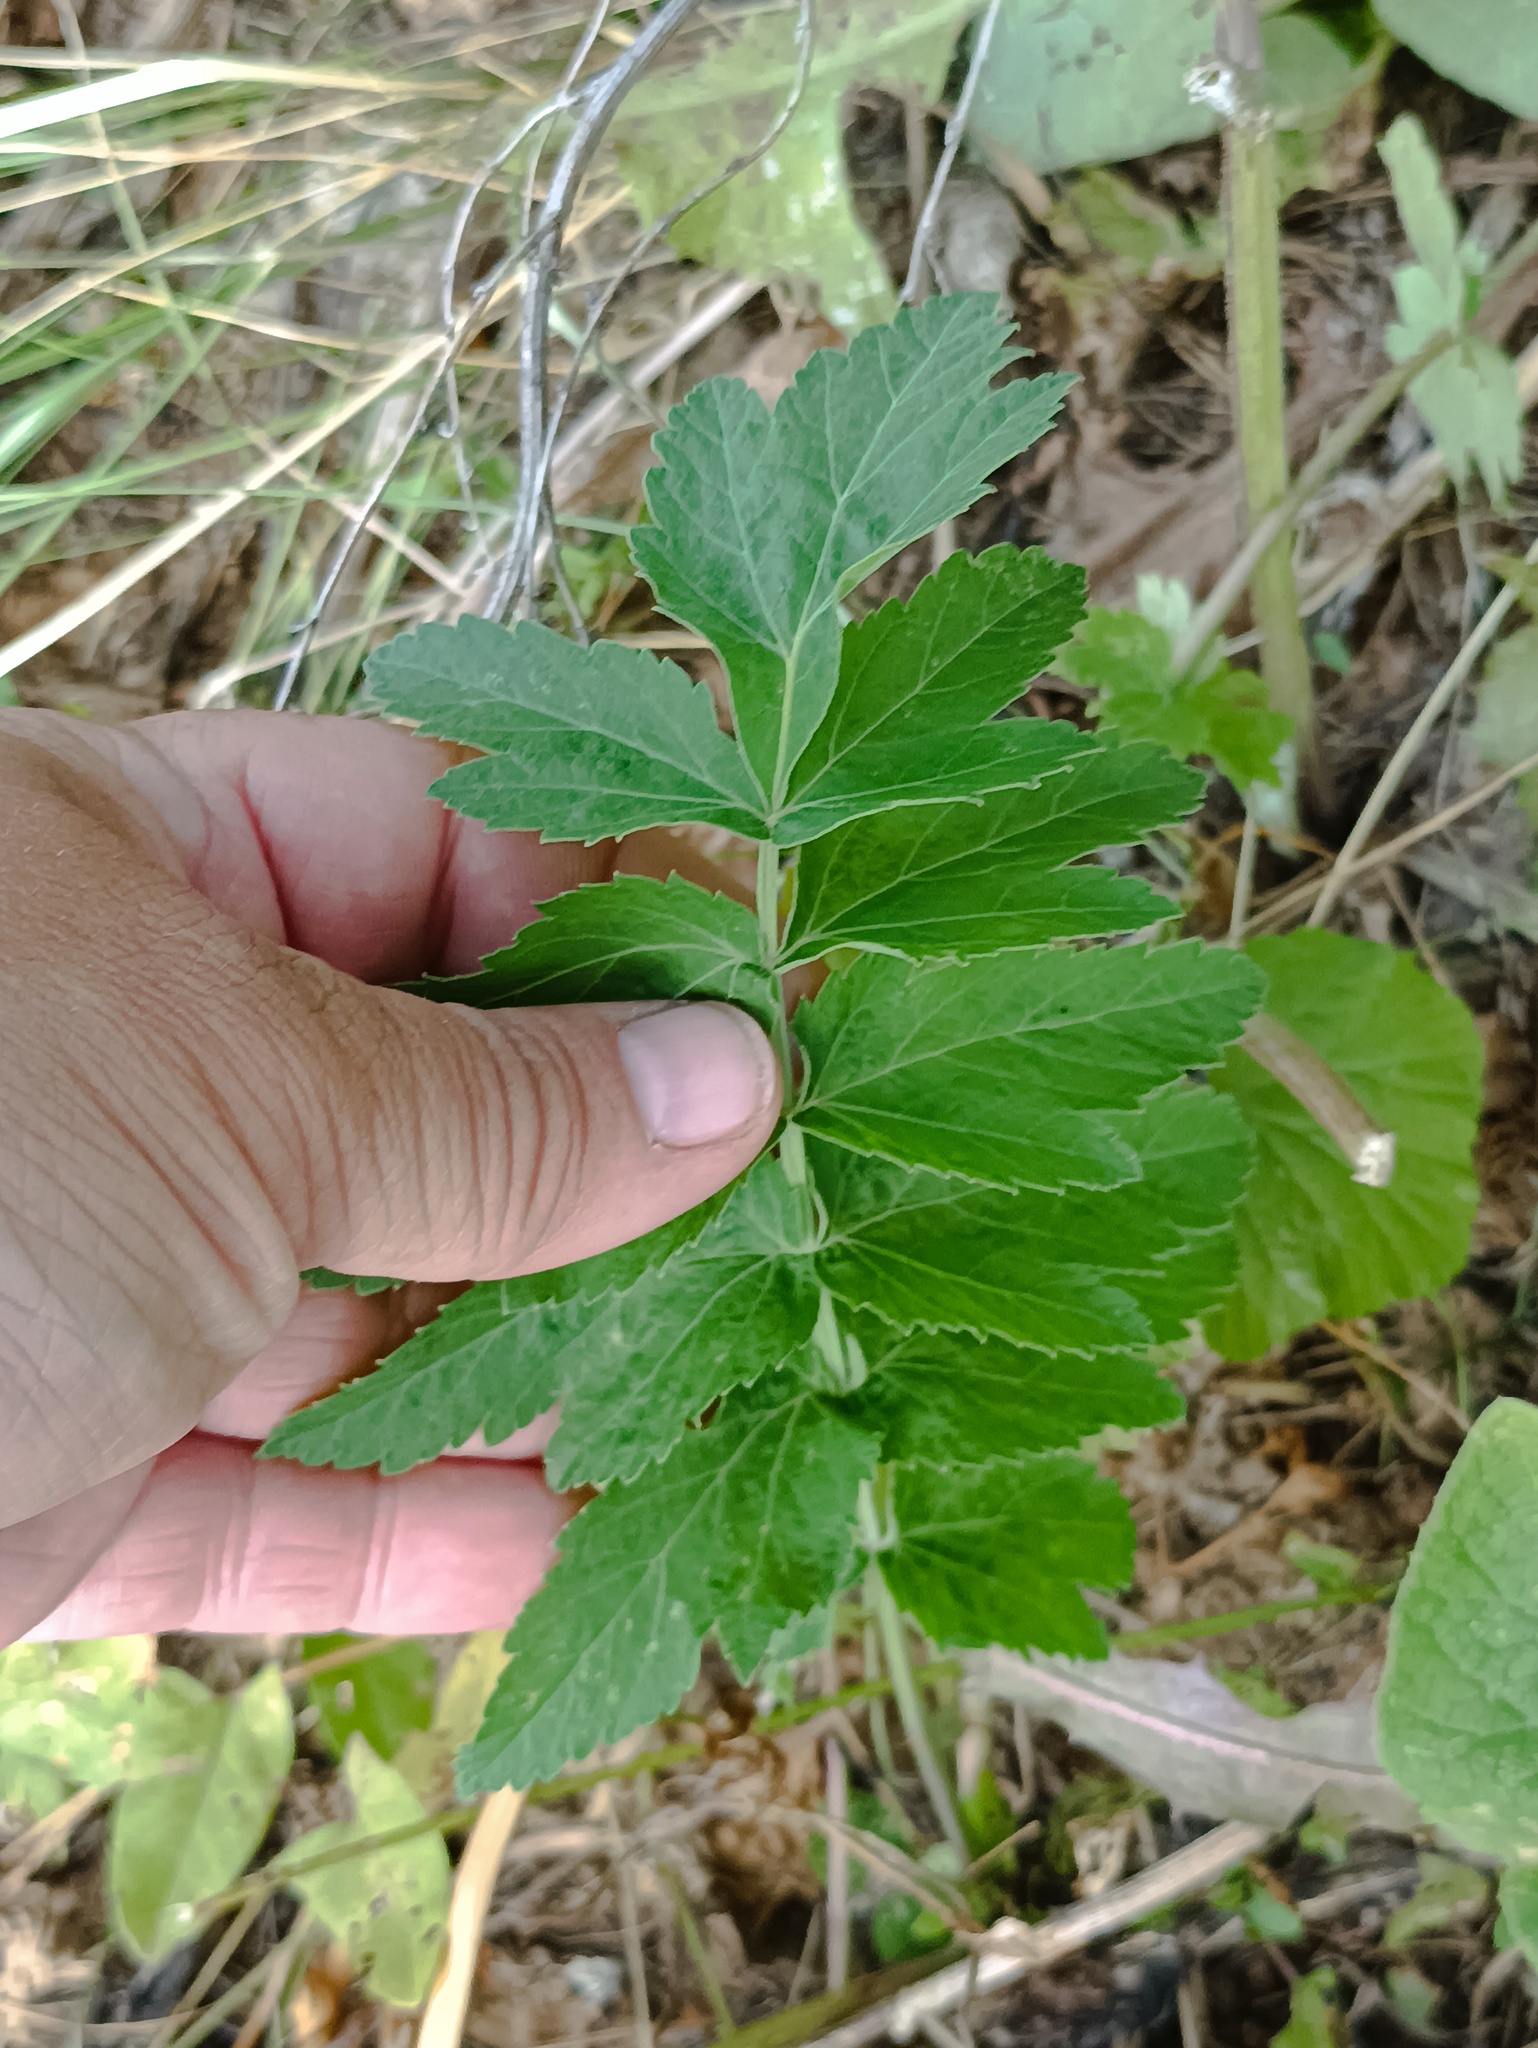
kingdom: Plantae
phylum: Tracheophyta
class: Magnoliopsida
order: Apiales
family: Apiaceae
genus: Pastinaca
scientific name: Pastinaca sativa
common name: Wild parsnip
